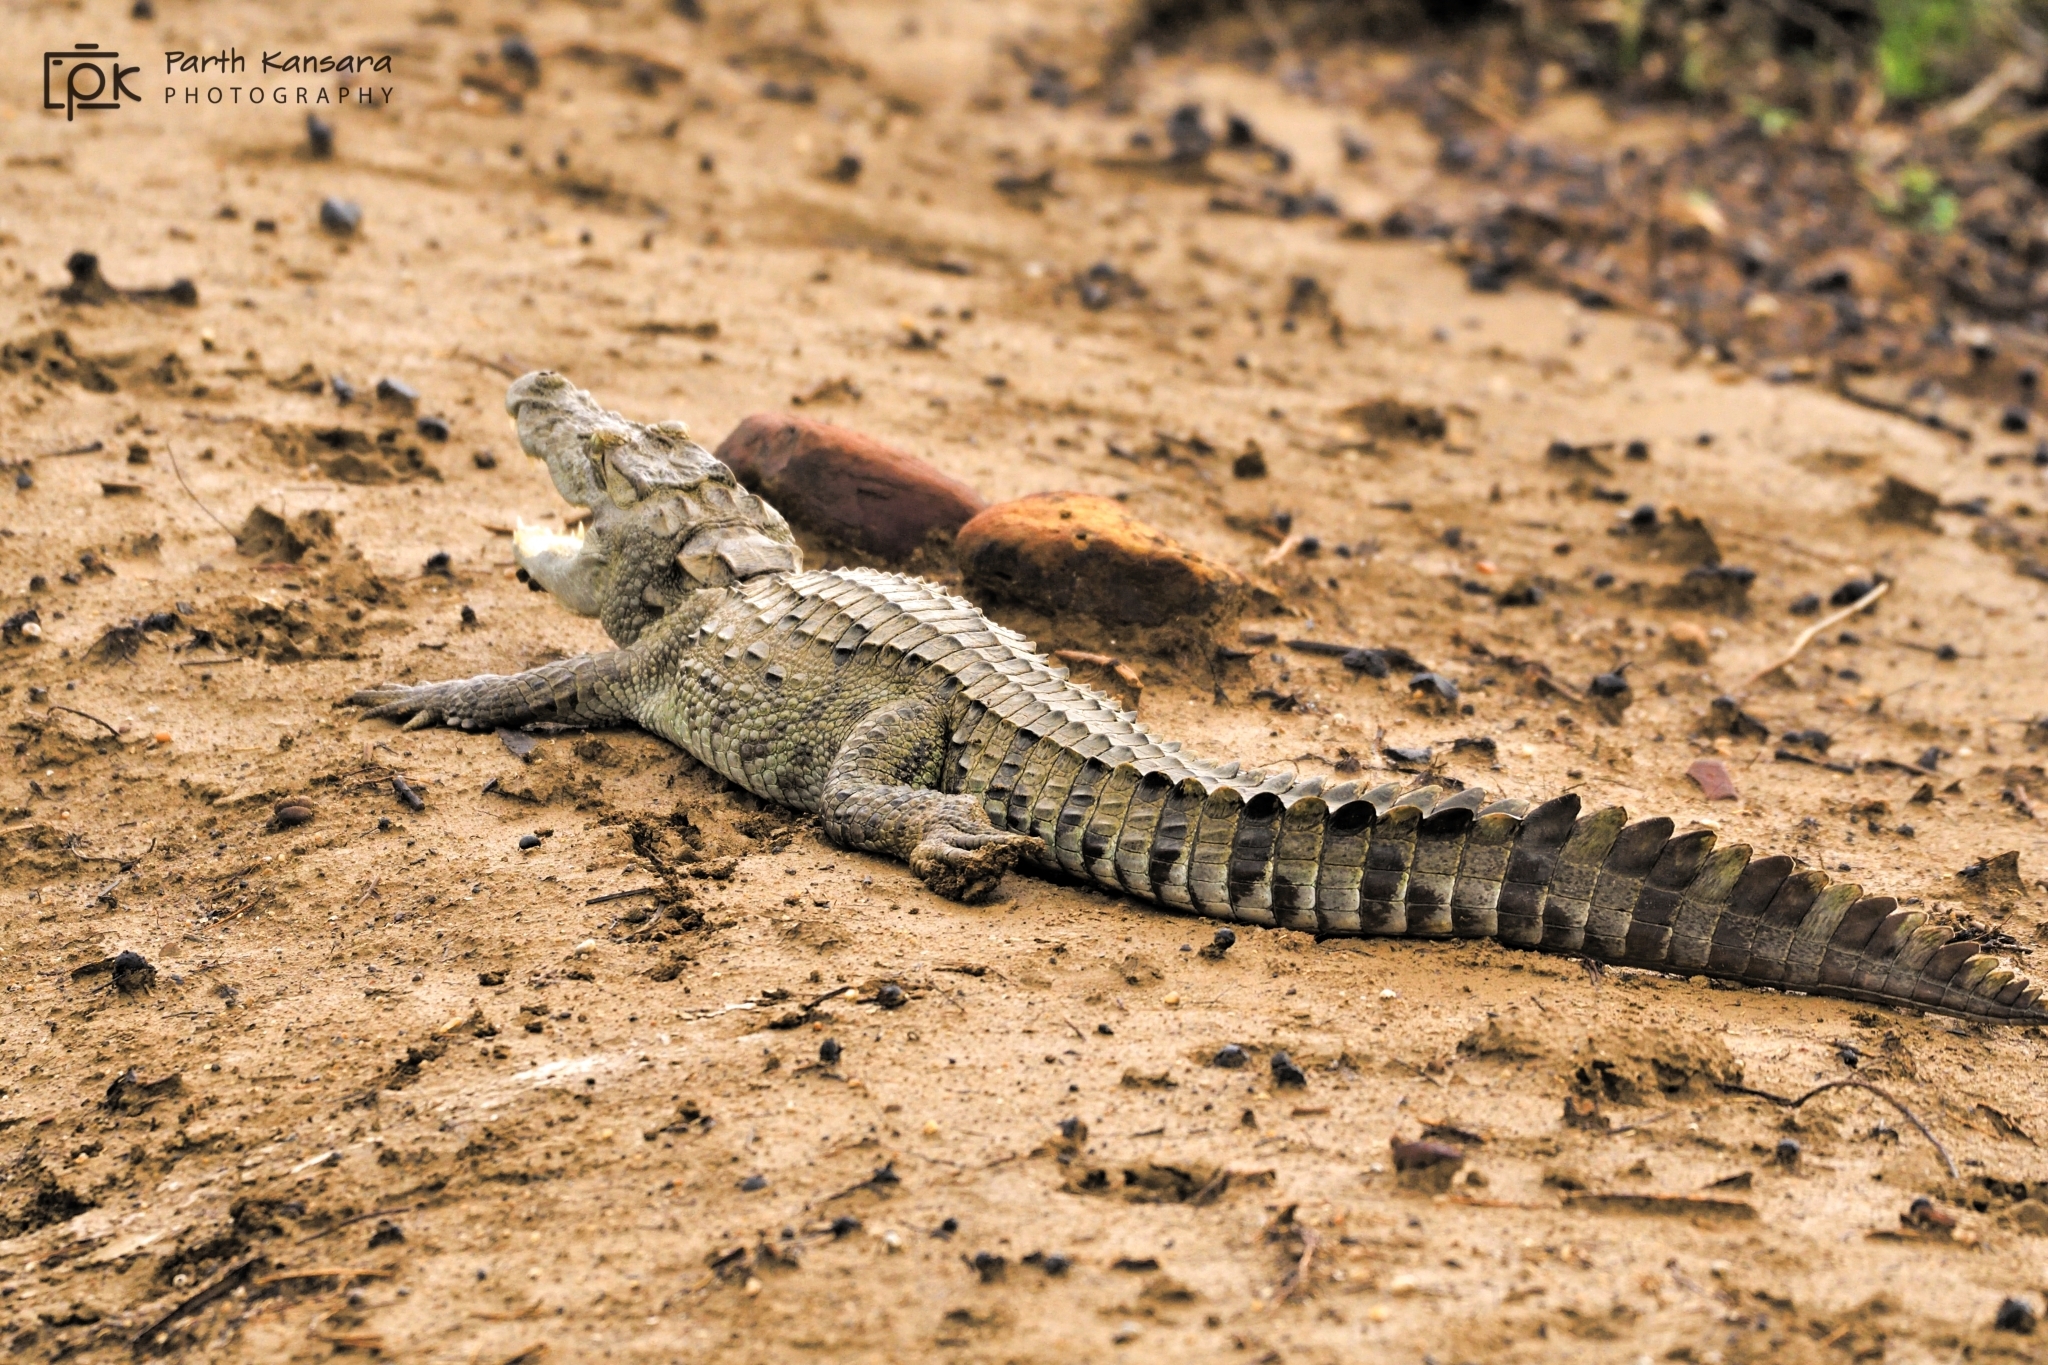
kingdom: Animalia
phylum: Chordata
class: Crocodylia
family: Crocodylidae
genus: Crocodylus
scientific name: Crocodylus palustris
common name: Mugger crocodile
